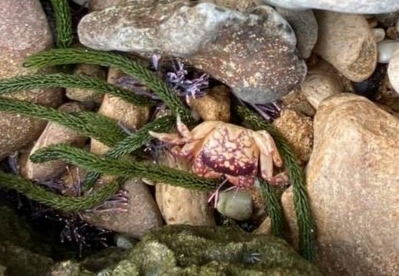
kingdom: Animalia
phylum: Arthropoda
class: Malacostraca
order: Decapoda
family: Varunidae
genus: Cyclograpsus
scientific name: Cyclograpsus granulosus
